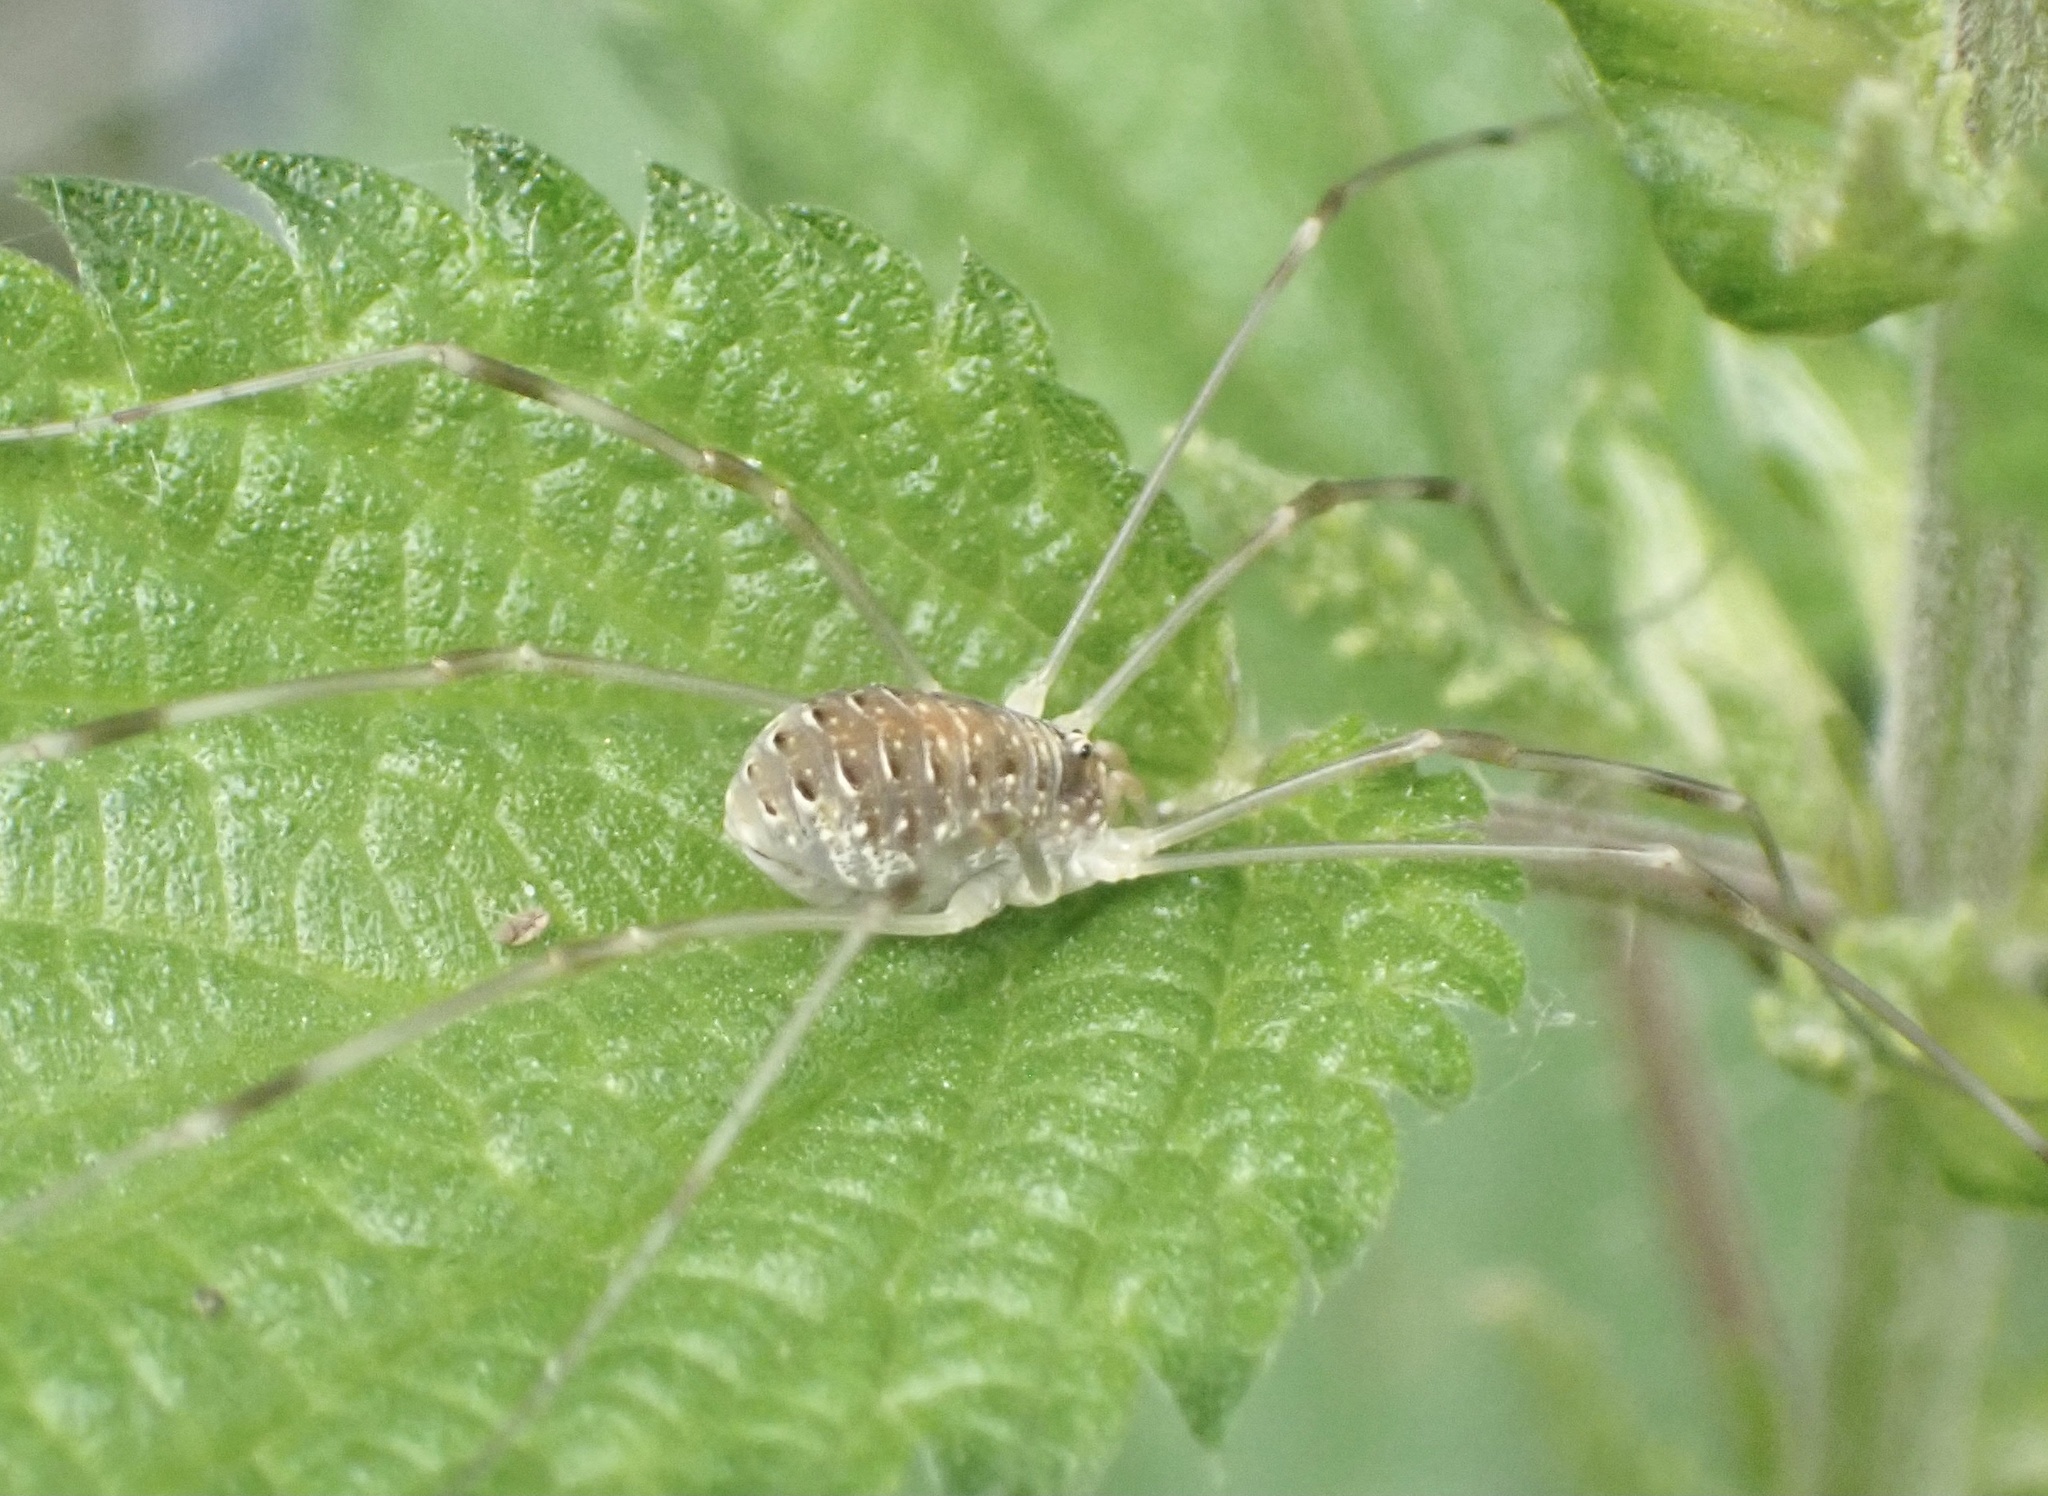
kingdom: Animalia
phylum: Arthropoda
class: Arachnida
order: Opiliones
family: Phalangiidae
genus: Opilio
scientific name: Opilio canestrinii
